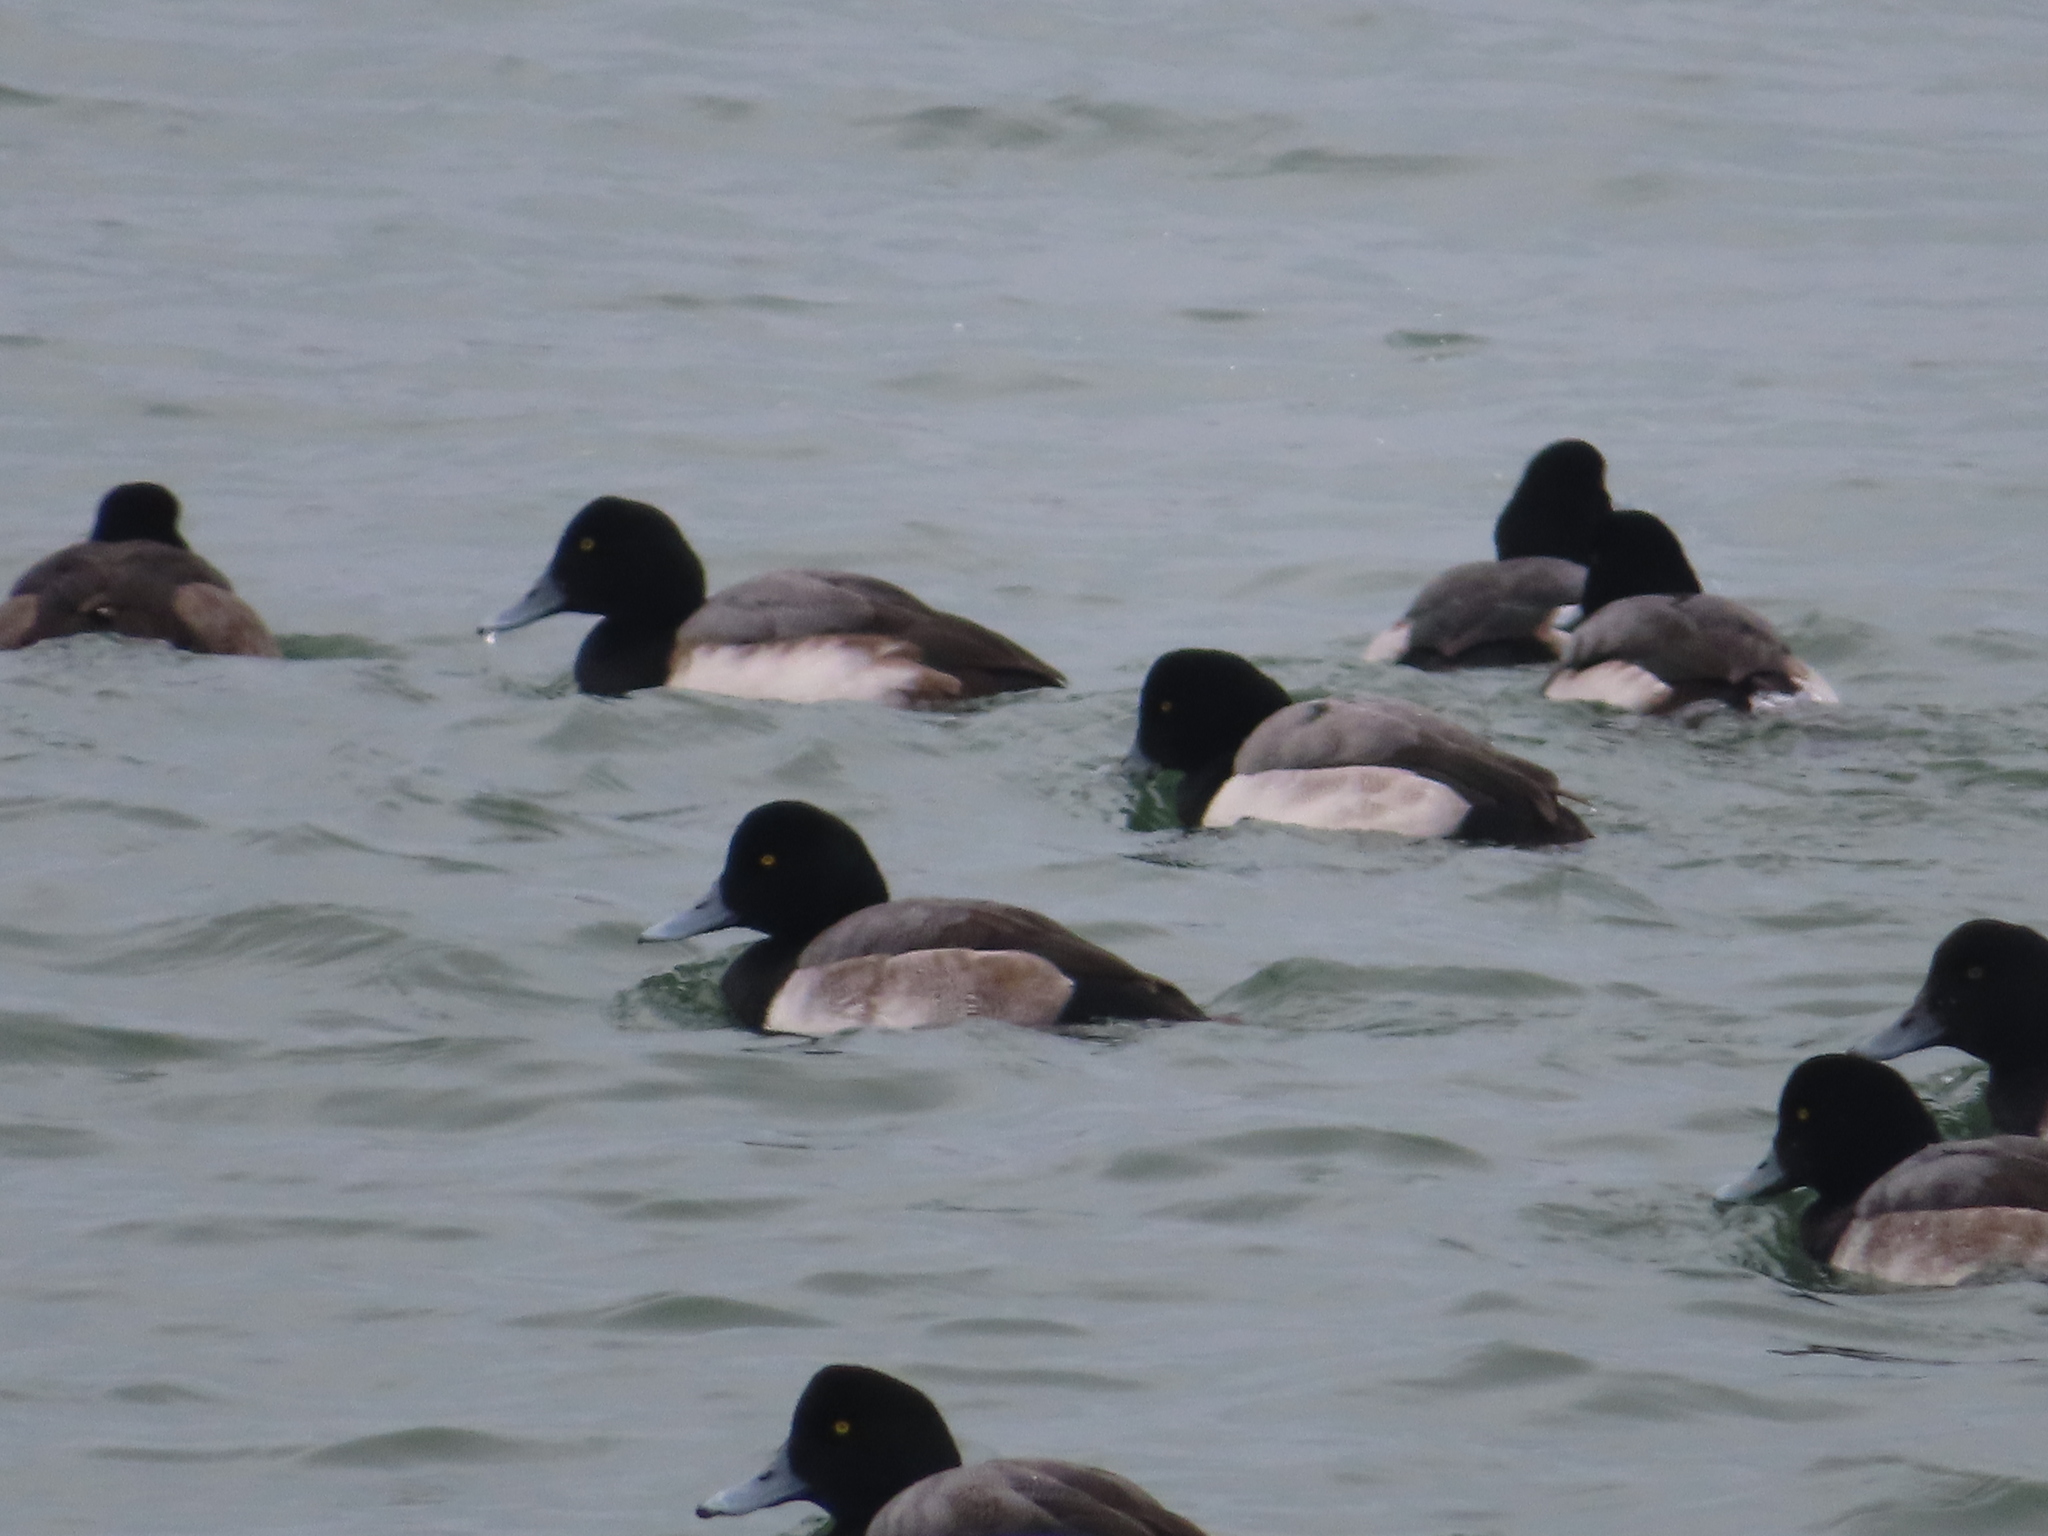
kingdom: Animalia
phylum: Chordata
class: Aves
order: Anseriformes
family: Anatidae
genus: Aythya
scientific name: Aythya marila
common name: Greater scaup
